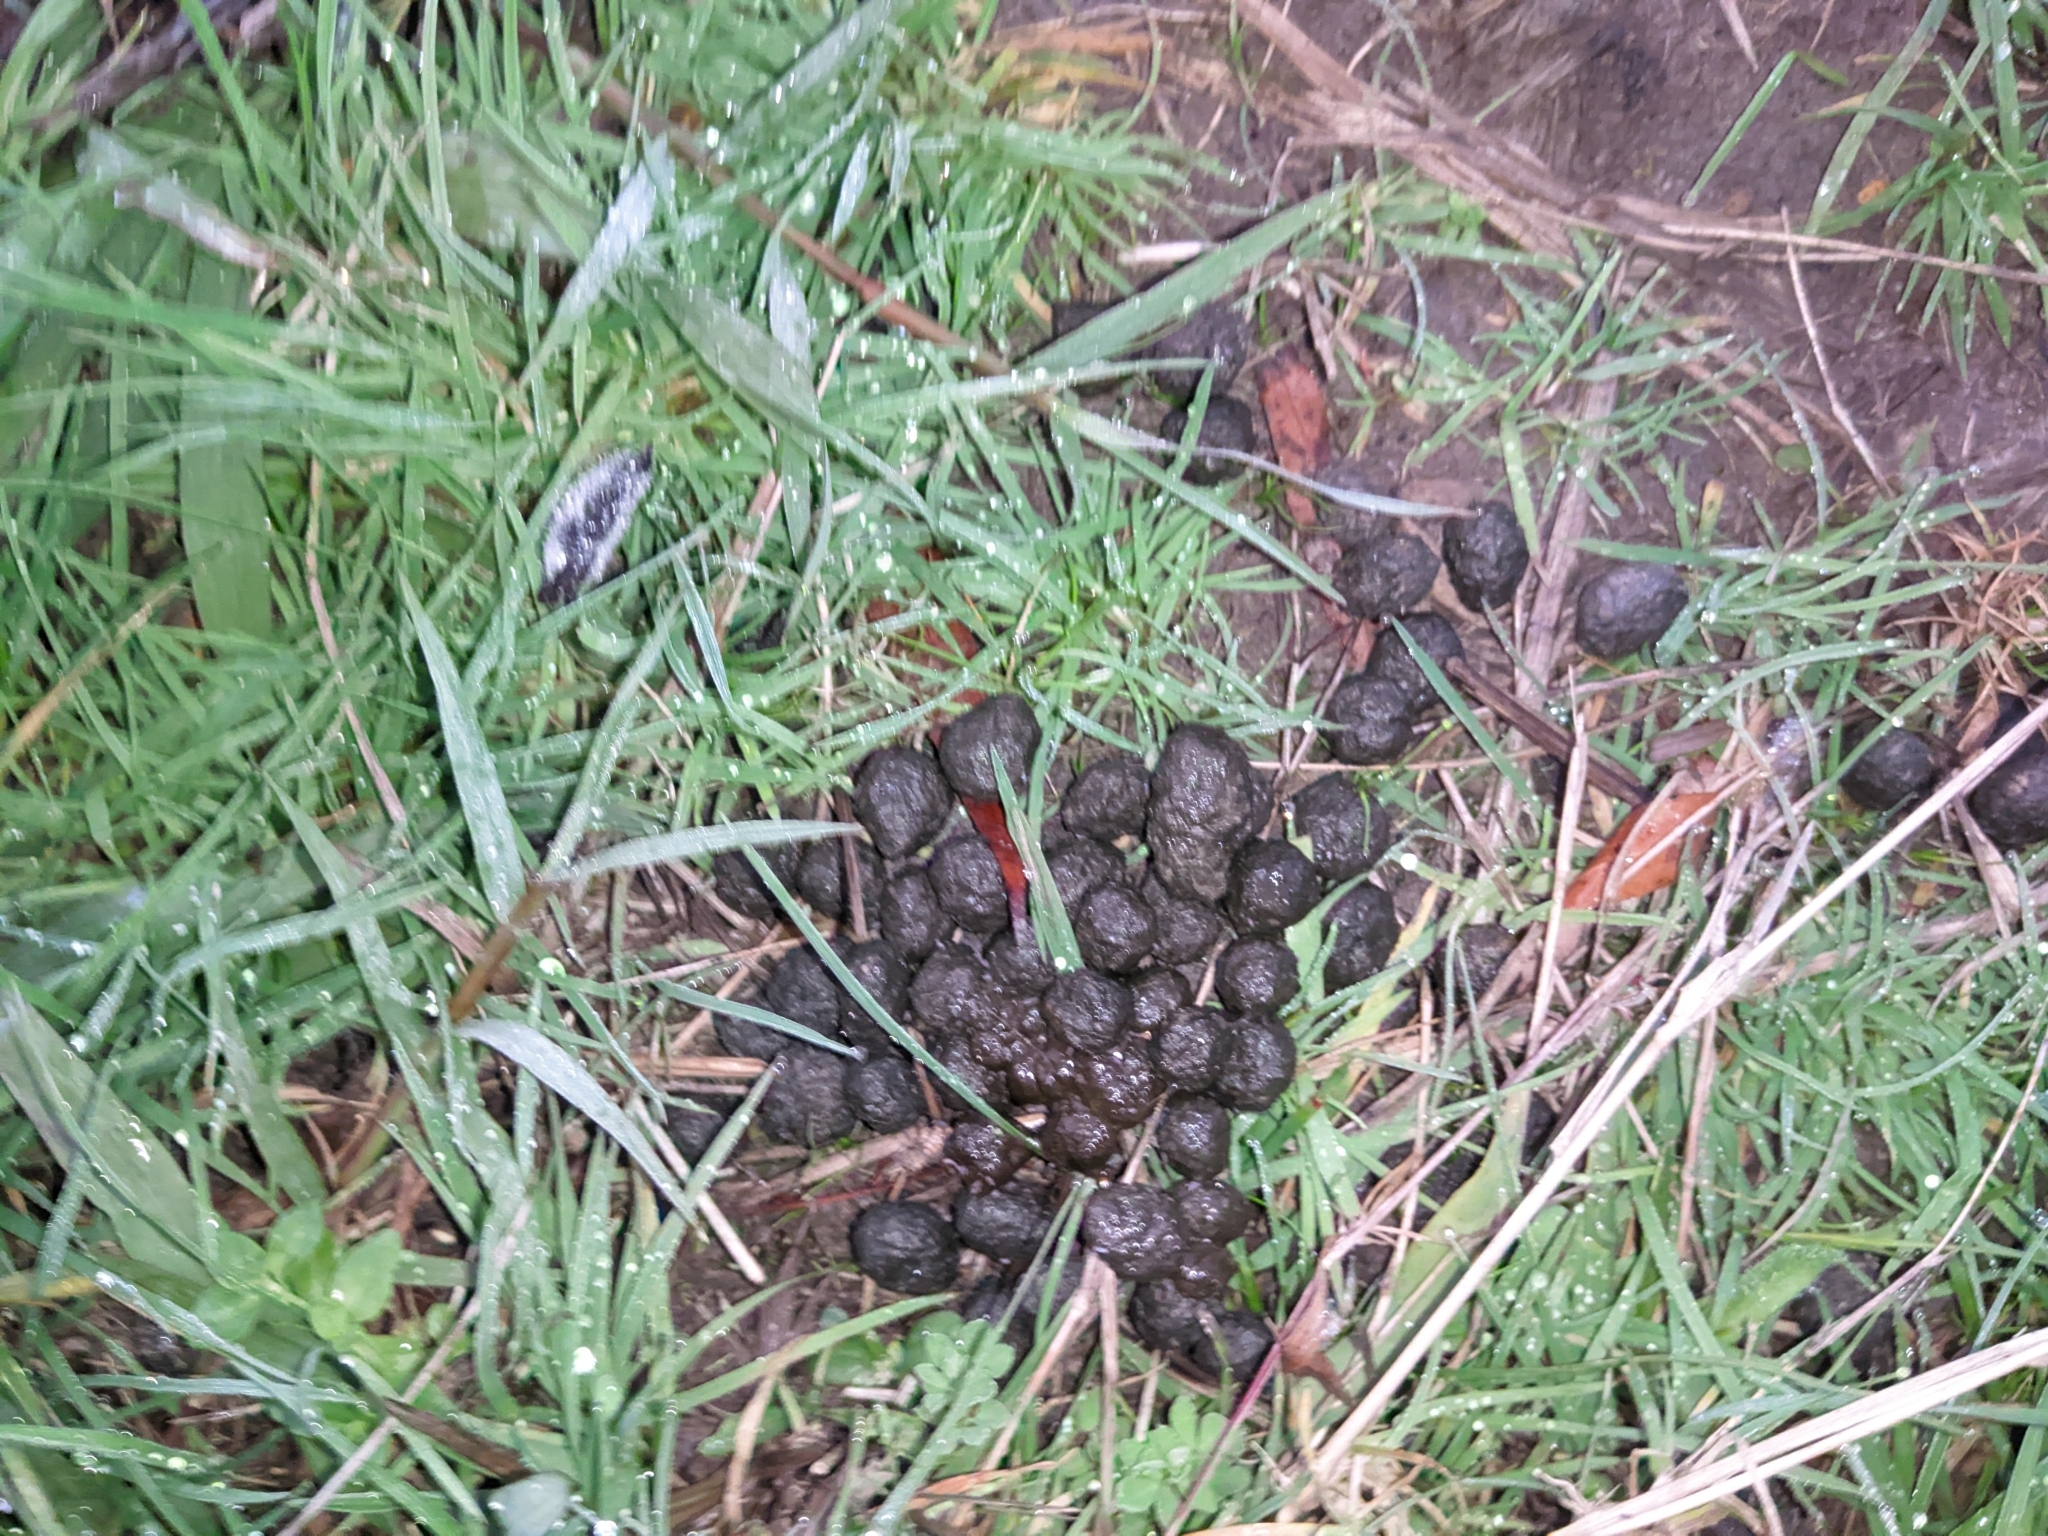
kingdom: Animalia
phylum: Chordata
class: Mammalia
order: Lagomorpha
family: Leporidae
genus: Oryctolagus
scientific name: Oryctolagus cuniculus
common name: European rabbit
